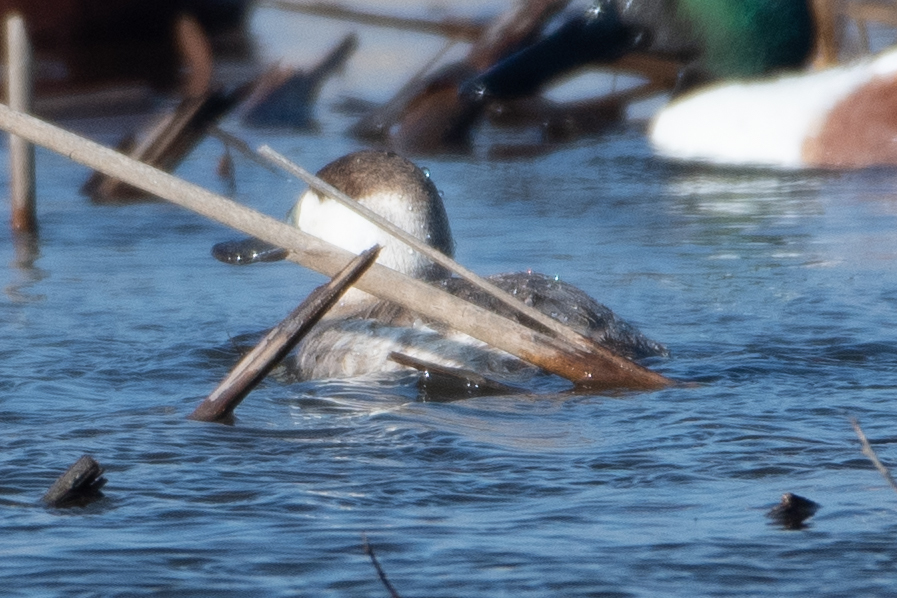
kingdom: Animalia
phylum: Chordata
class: Aves
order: Anseriformes
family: Anatidae
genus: Oxyura
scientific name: Oxyura jamaicensis
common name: Ruddy duck
